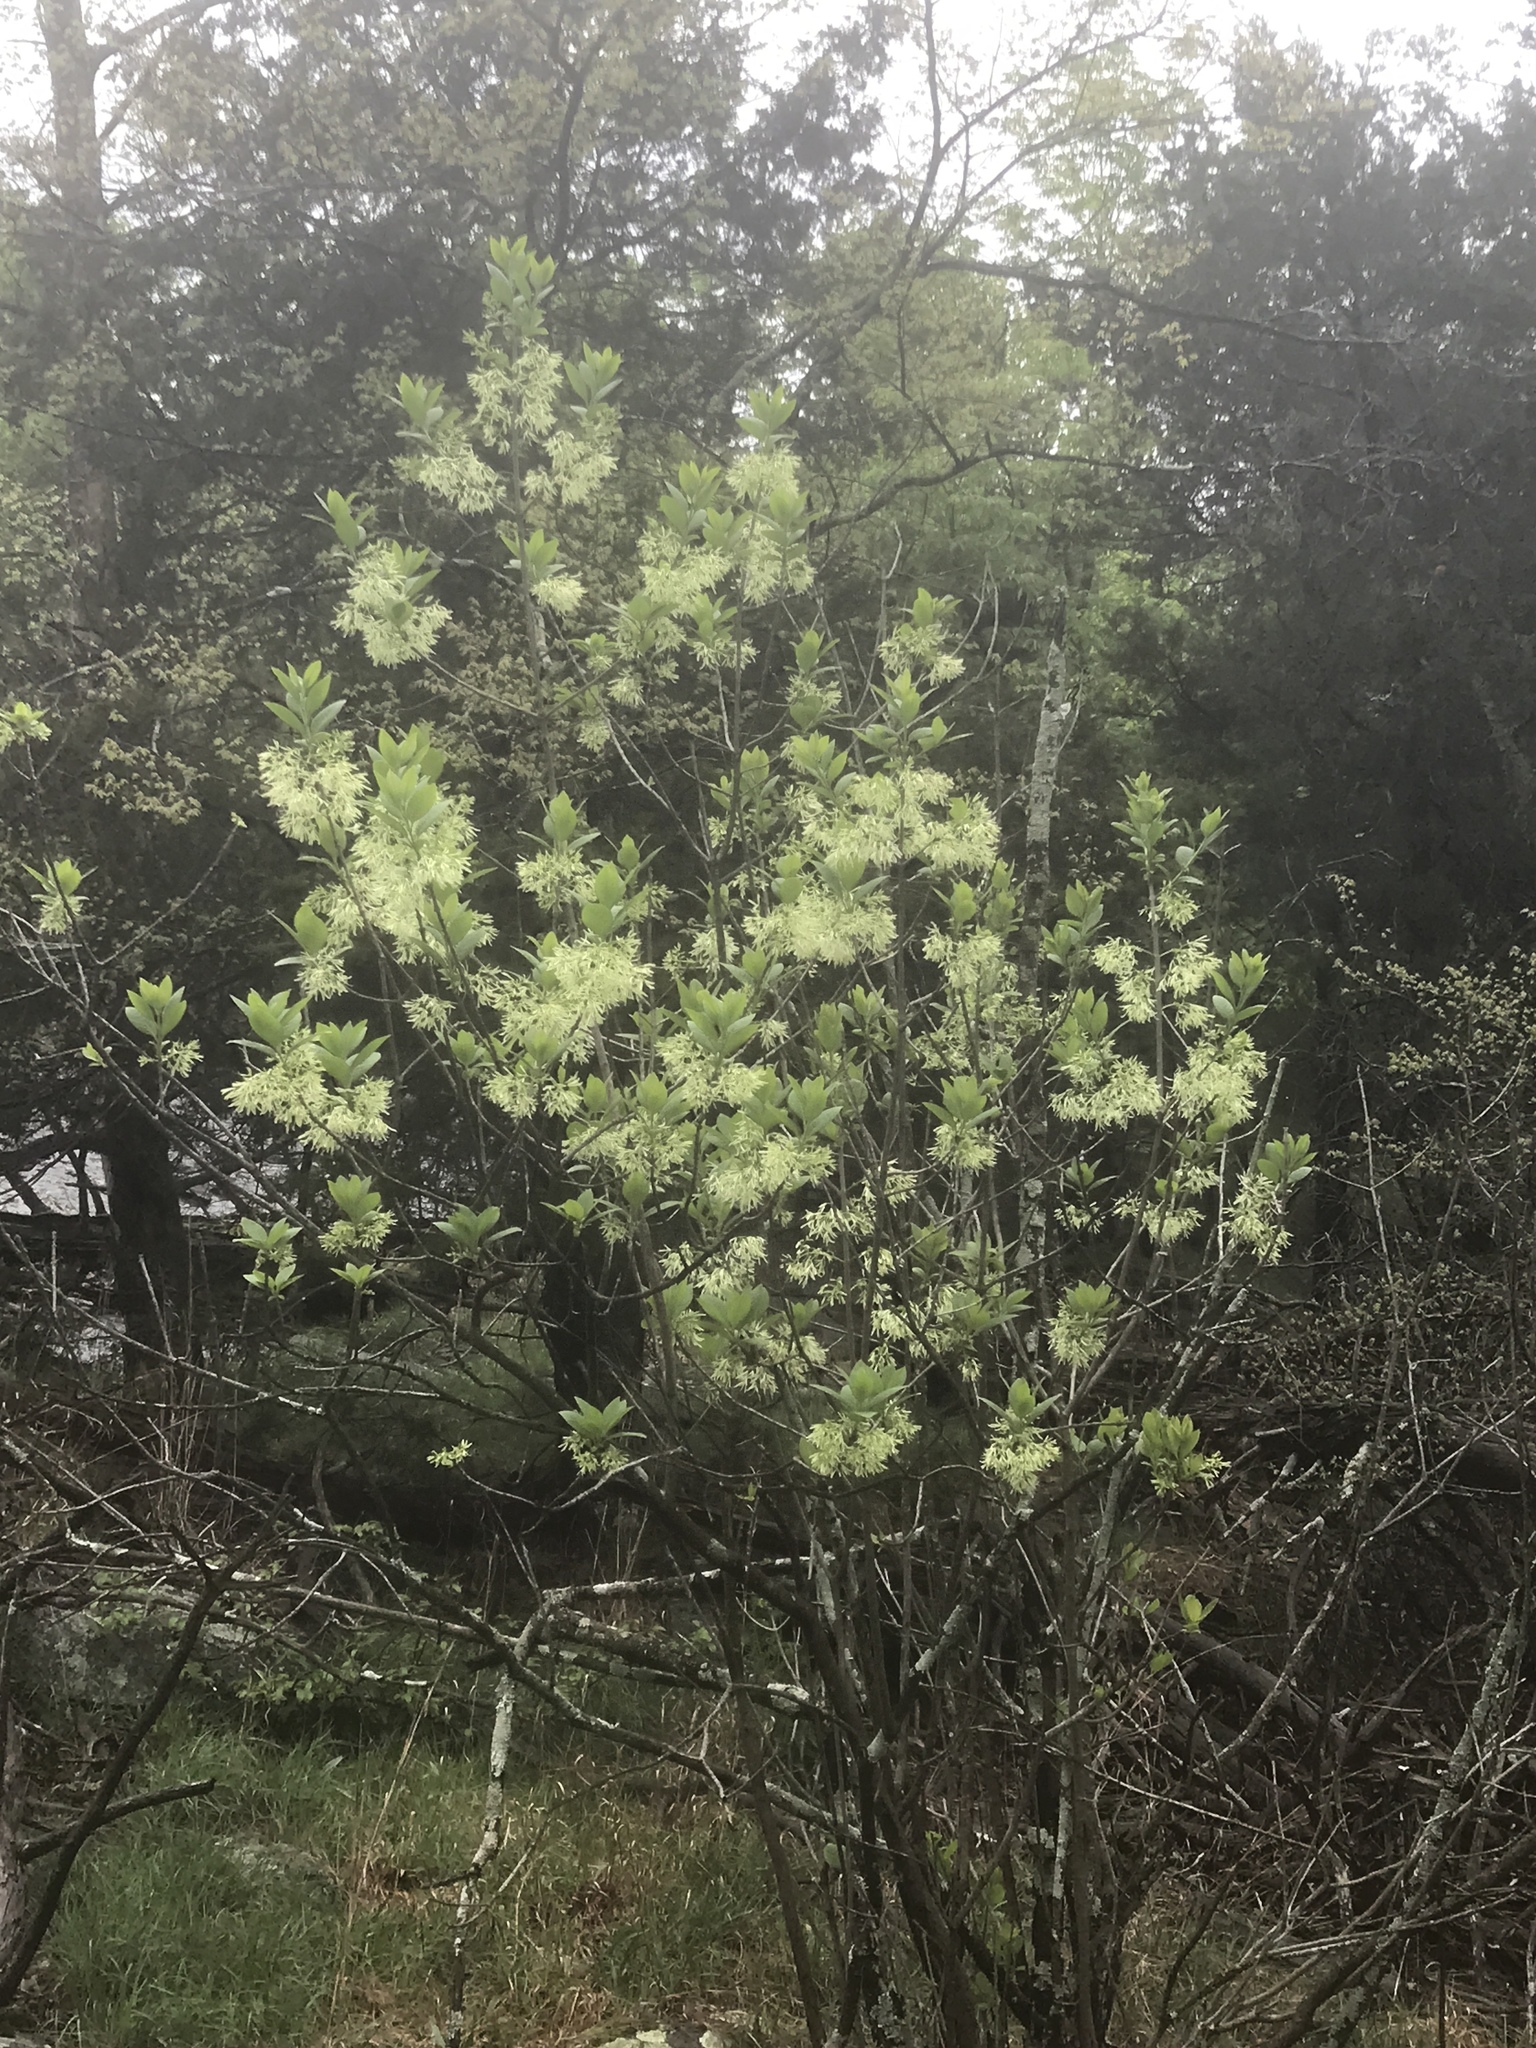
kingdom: Plantae
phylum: Tracheophyta
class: Magnoliopsida
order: Lamiales
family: Oleaceae
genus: Chionanthus
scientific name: Chionanthus virginicus
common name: American fringetree
